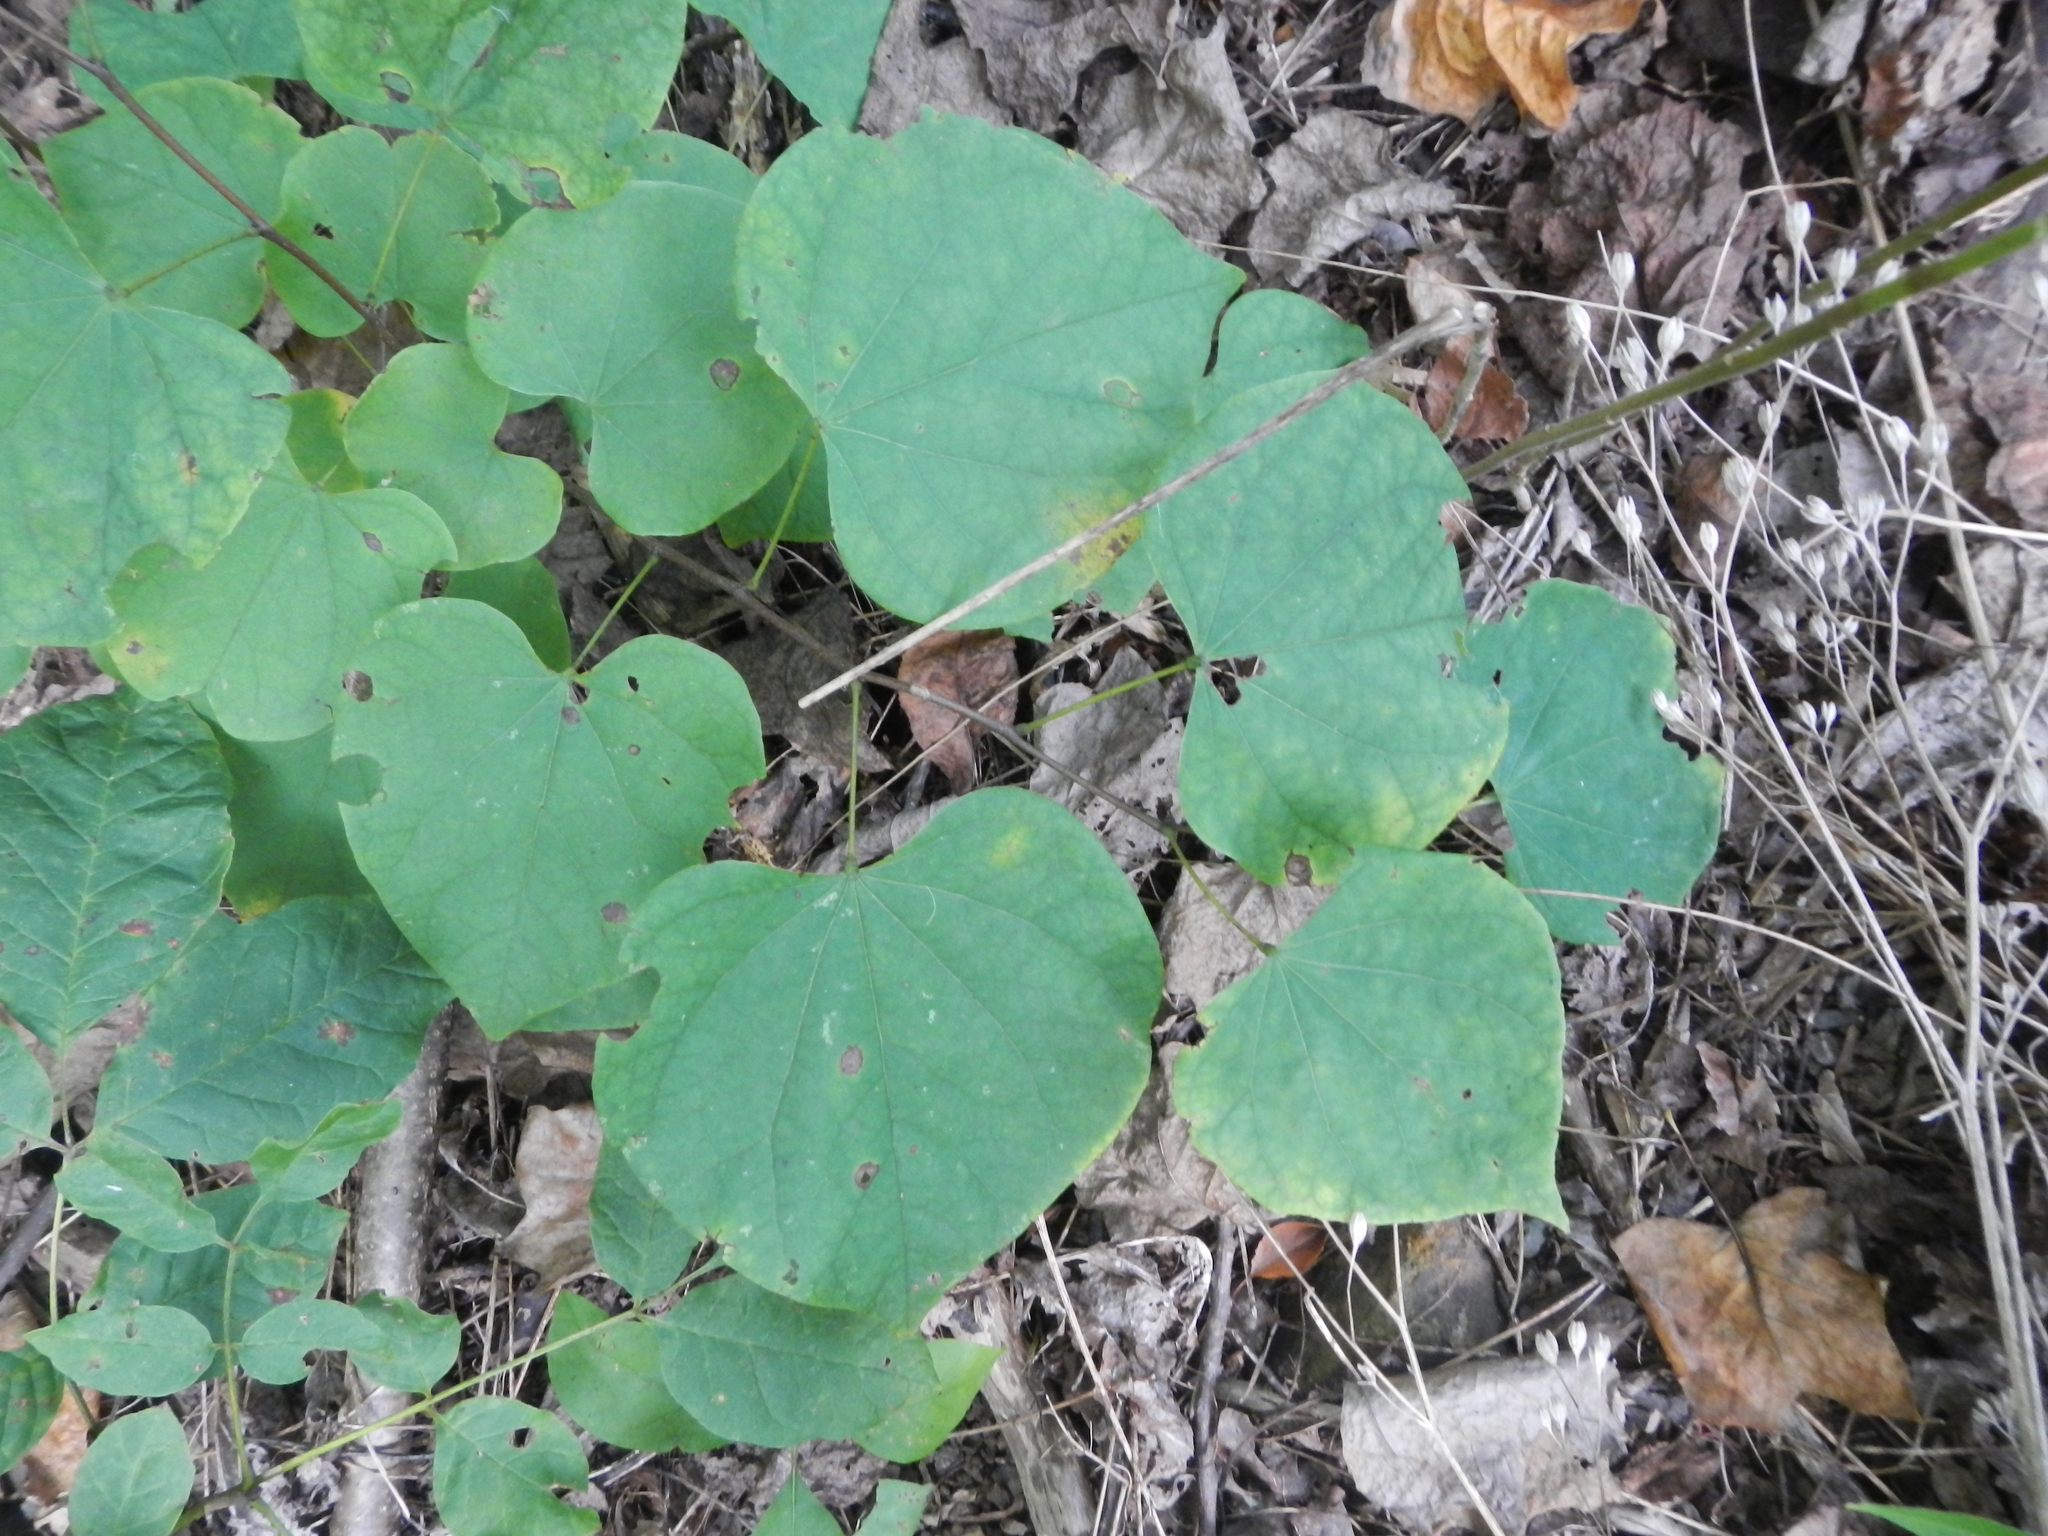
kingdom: Plantae
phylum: Tracheophyta
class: Magnoliopsida
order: Fabales
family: Fabaceae
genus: Cercis
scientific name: Cercis canadensis
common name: Eastern redbud
